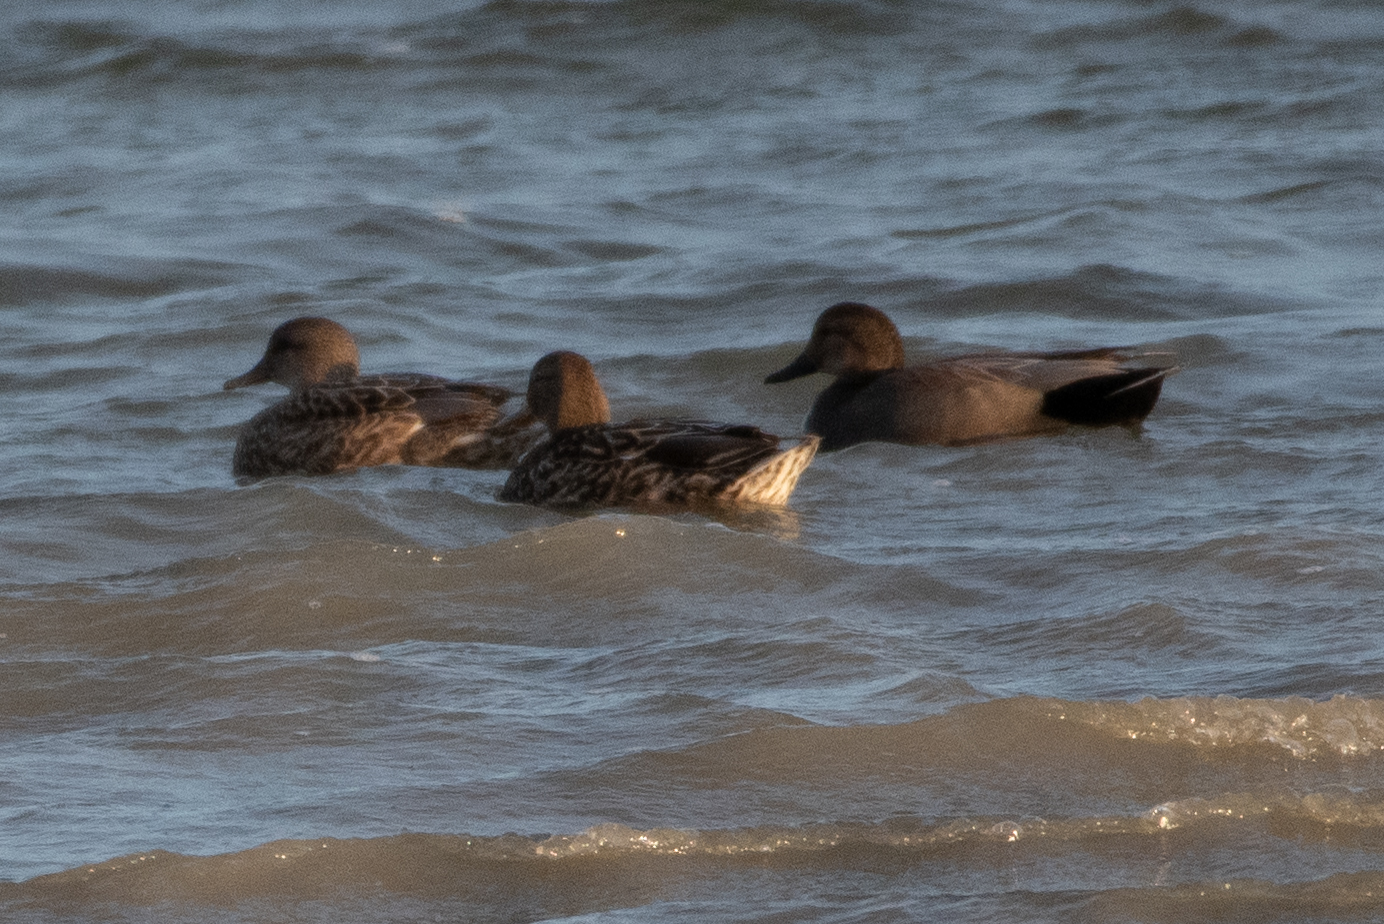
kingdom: Animalia
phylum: Chordata
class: Aves
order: Anseriformes
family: Anatidae
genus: Mareca
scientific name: Mareca strepera
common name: Gadwall
